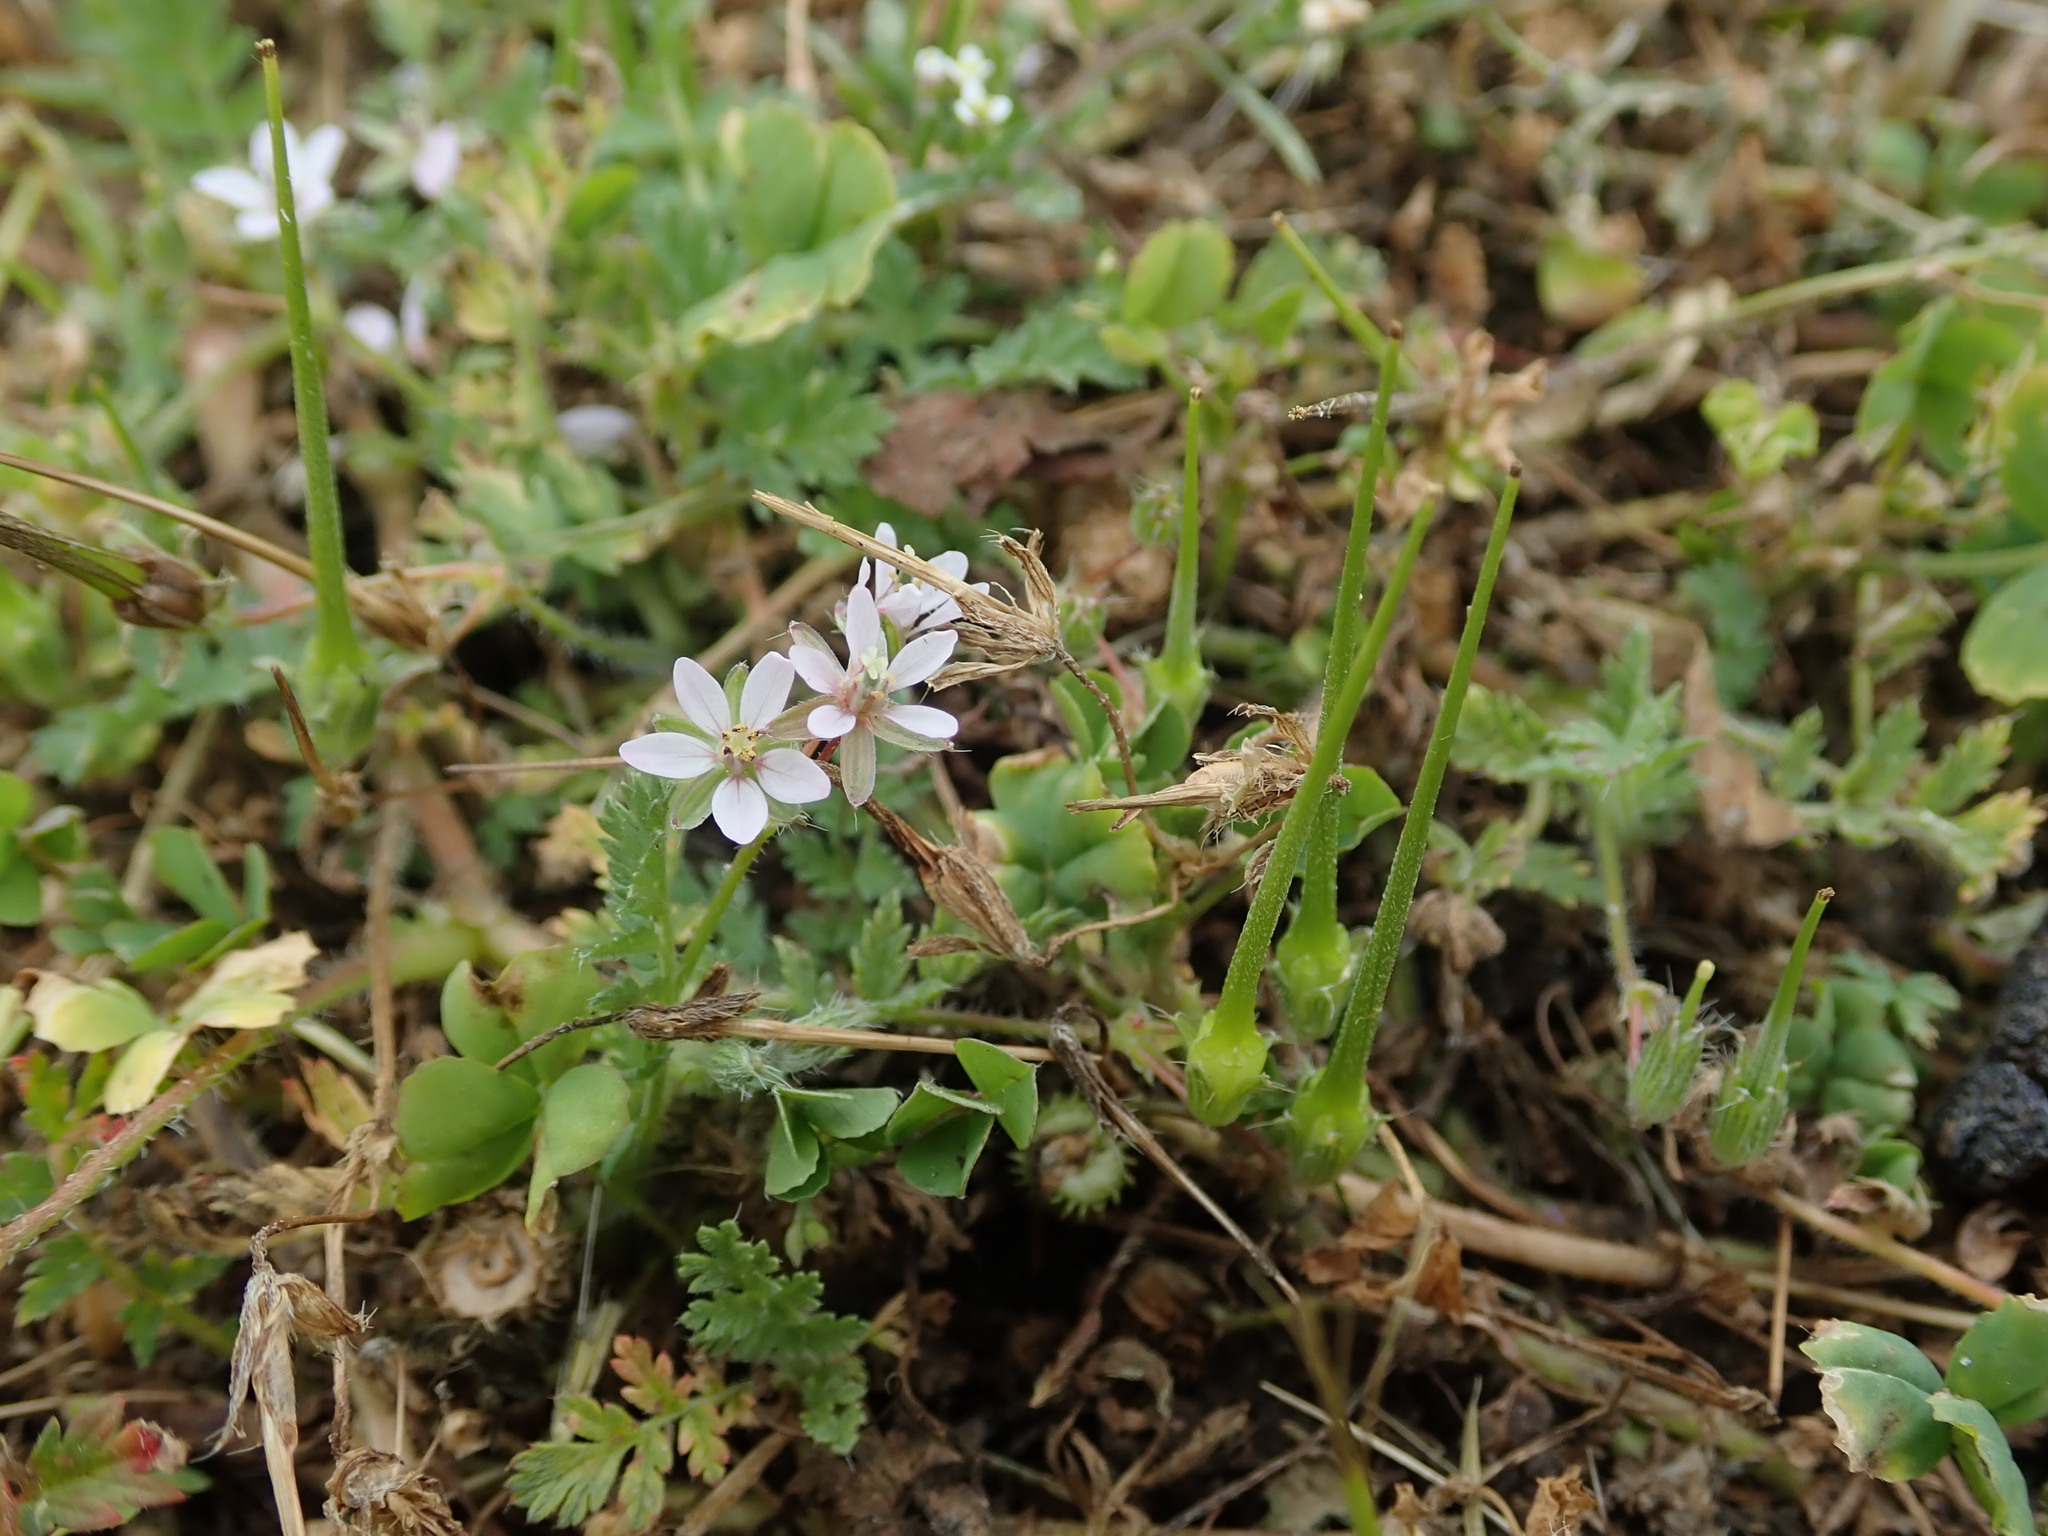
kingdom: Plantae
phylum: Tracheophyta
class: Magnoliopsida
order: Geraniales
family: Geraniaceae
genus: Erodium
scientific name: Erodium cicutarium
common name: Common stork's-bill
